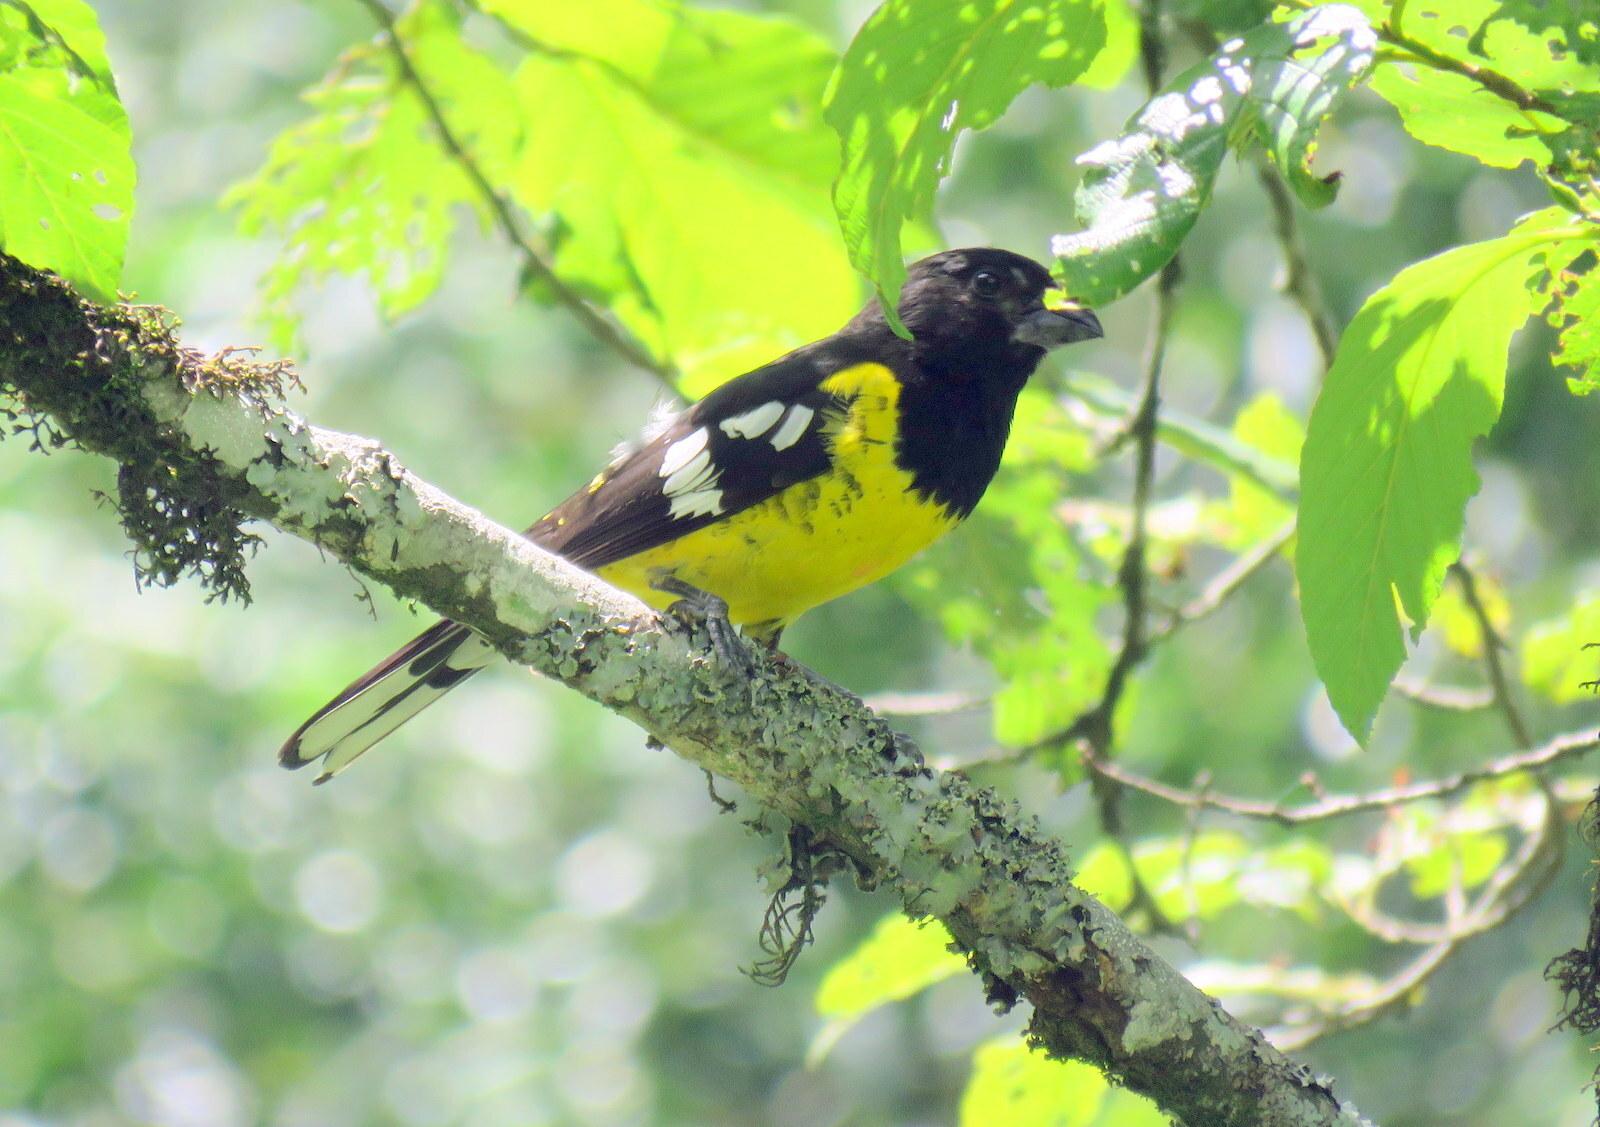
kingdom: Animalia
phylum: Chordata
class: Aves
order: Passeriformes
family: Cardinalidae
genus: Pheucticus
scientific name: Pheucticus aureoventris
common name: Black-backed grosbeak
